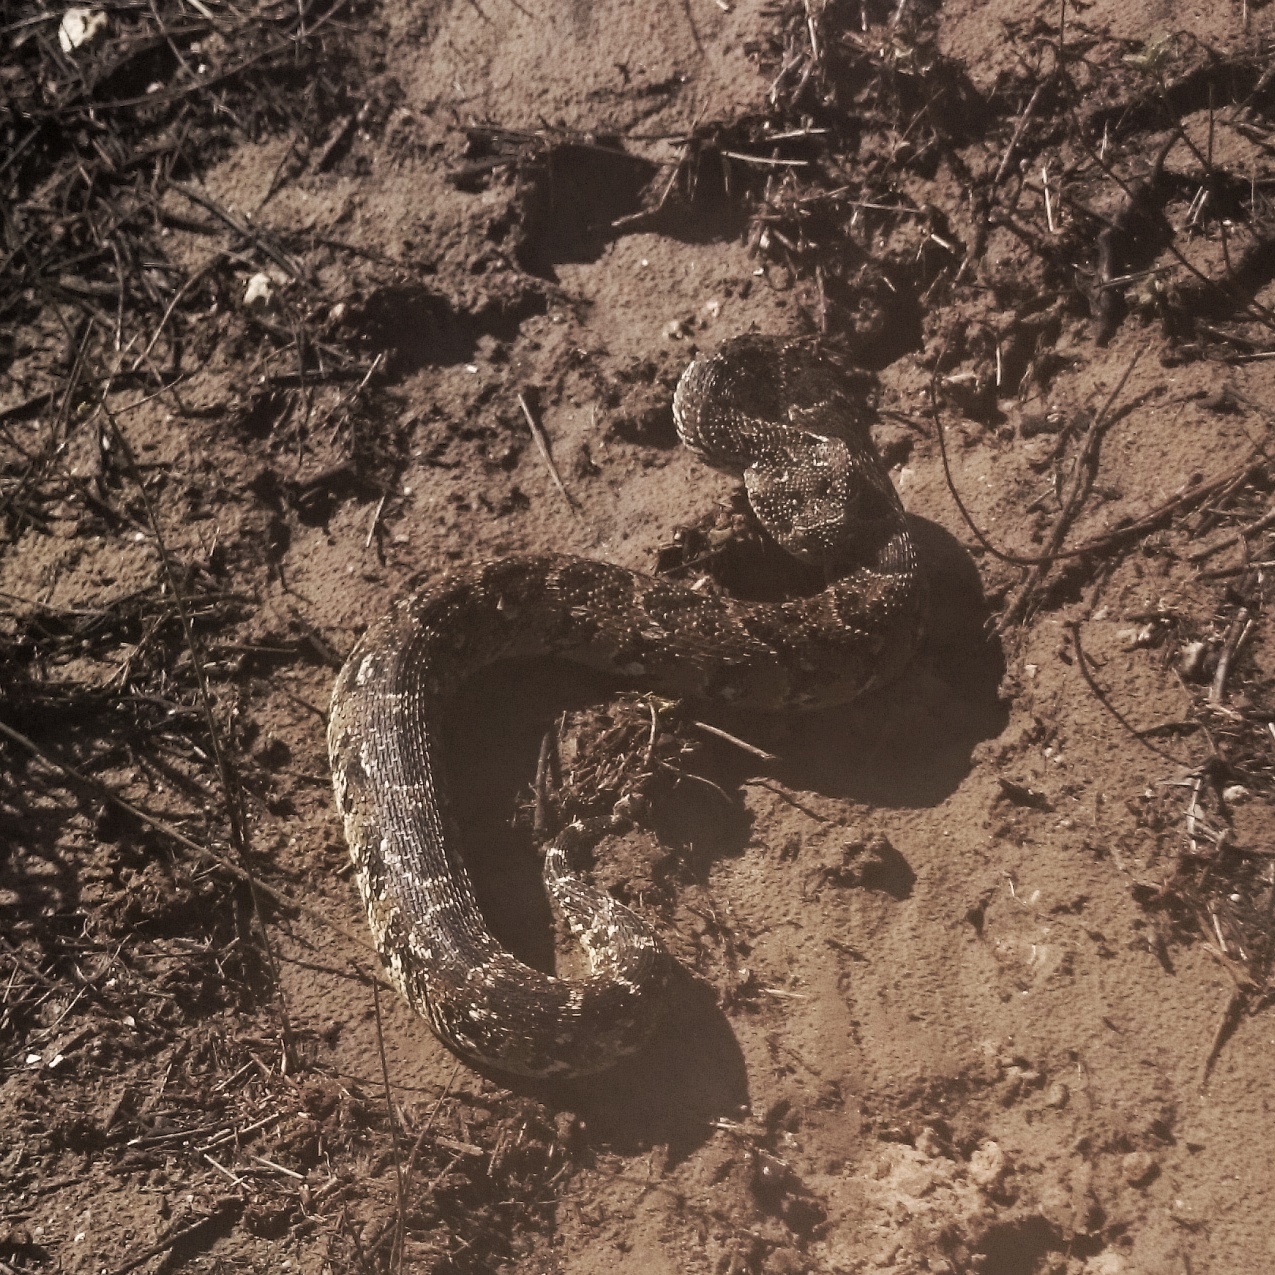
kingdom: Animalia
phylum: Chordata
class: Squamata
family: Viperidae
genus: Bitis
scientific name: Bitis arietans
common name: Puff adder
